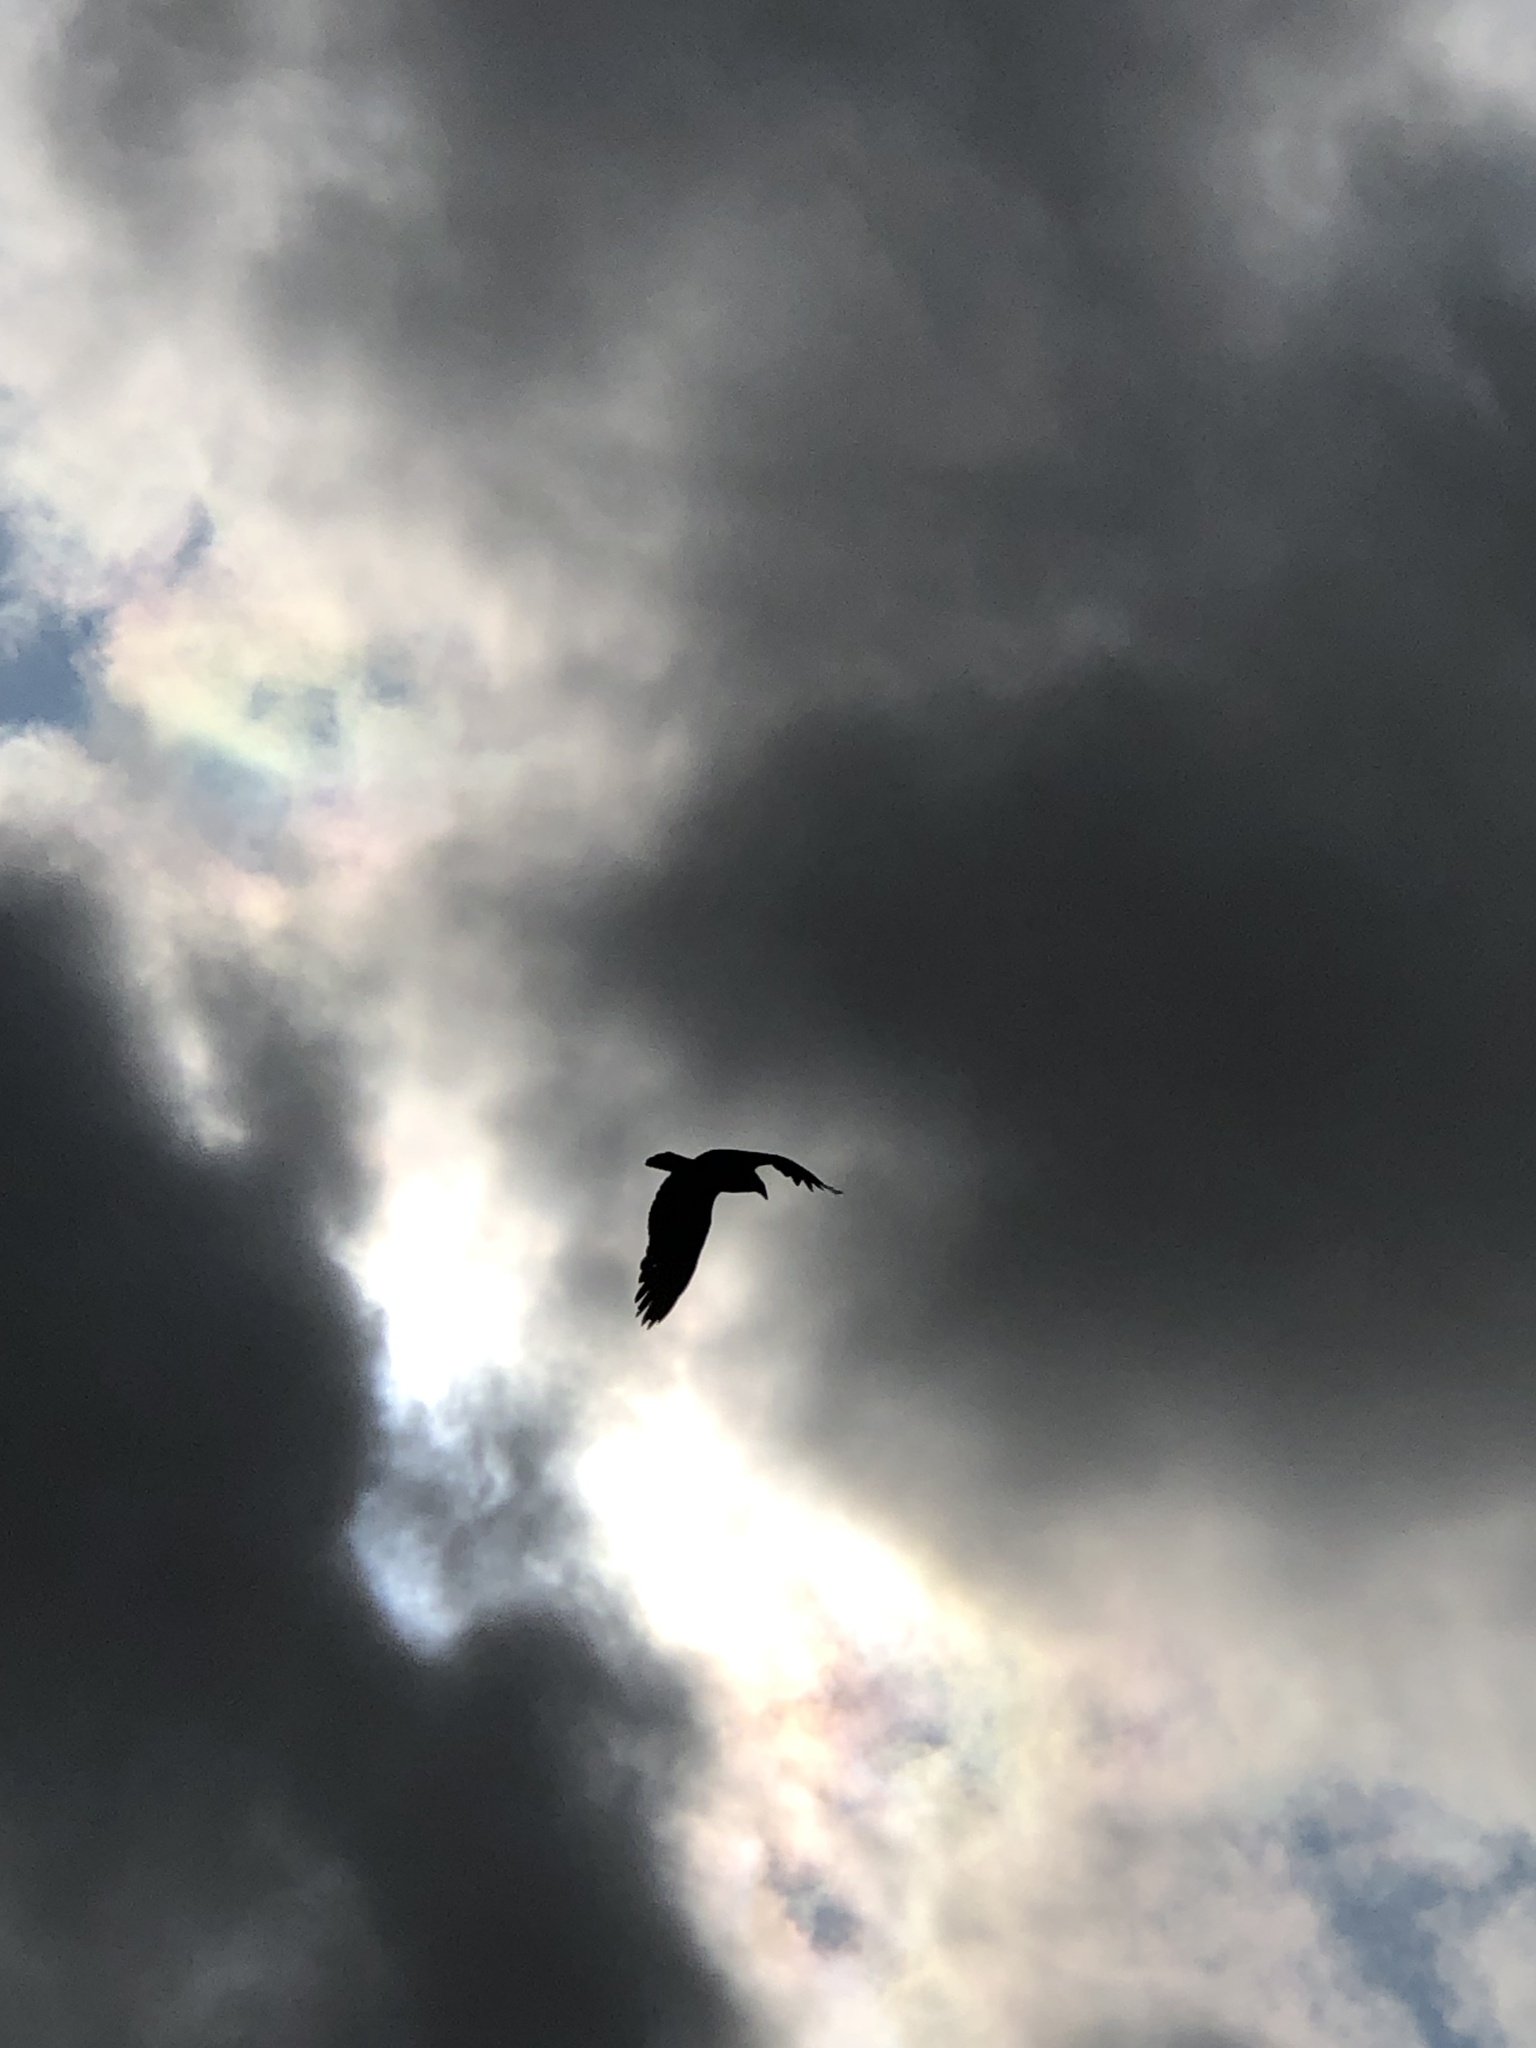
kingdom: Animalia
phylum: Chordata
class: Aves
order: Accipitriformes
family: Cathartidae
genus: Cathartes
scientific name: Cathartes aura
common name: Turkey vulture
